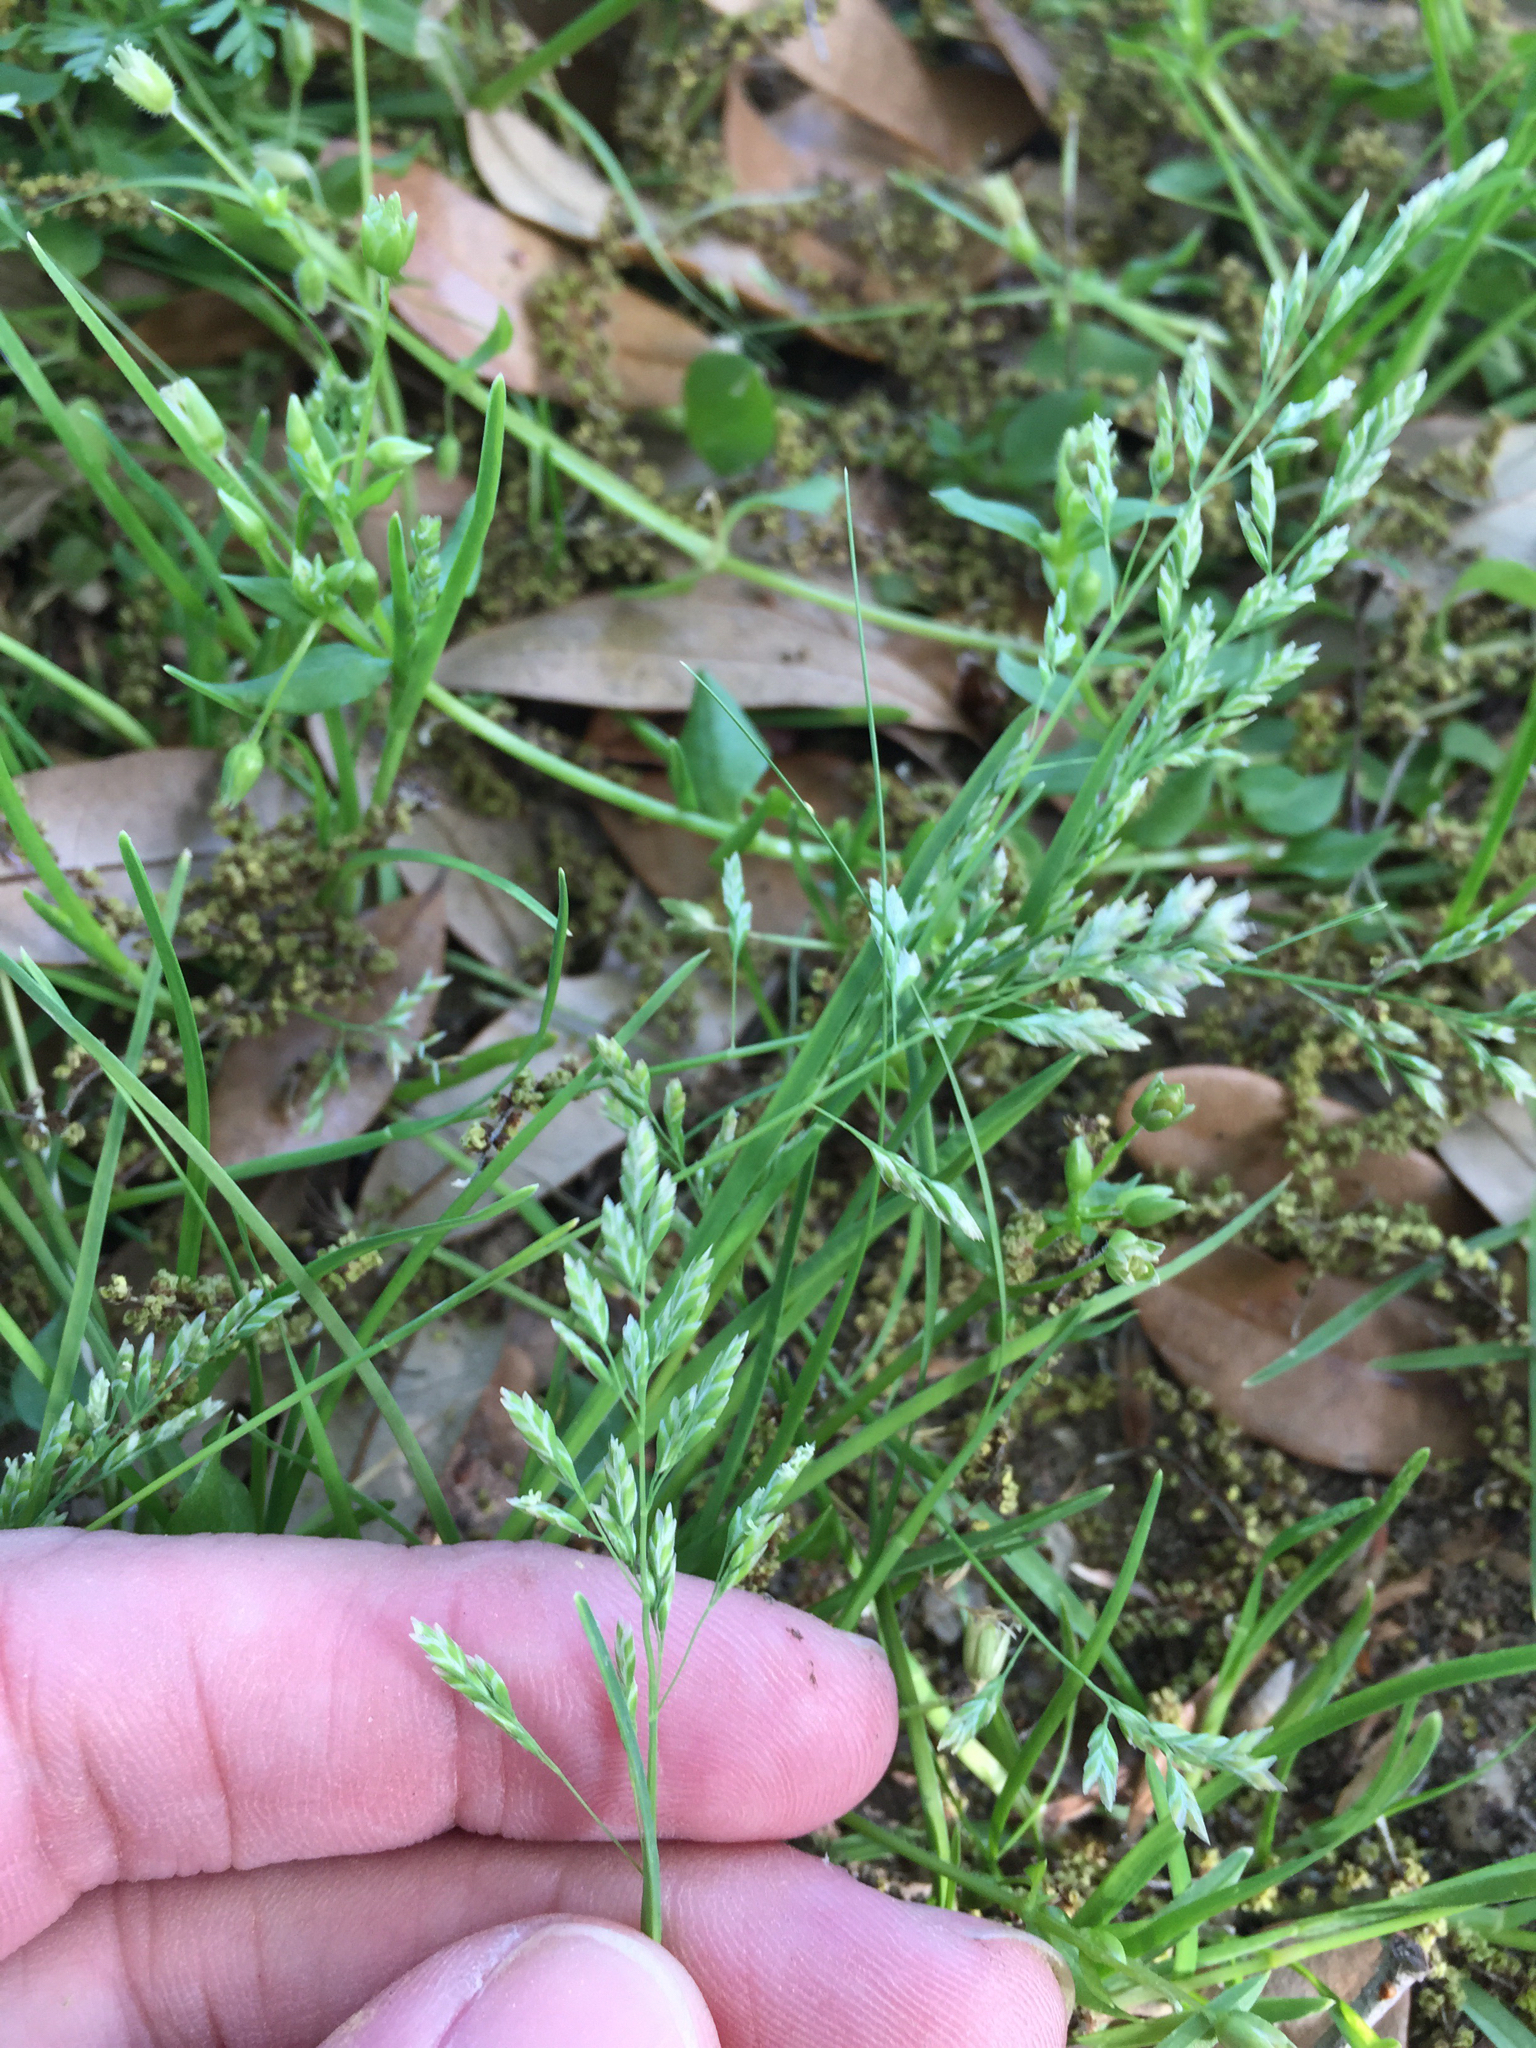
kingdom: Plantae
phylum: Tracheophyta
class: Liliopsida
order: Poales
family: Poaceae
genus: Poa
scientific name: Poa annua
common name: Annual bluegrass
